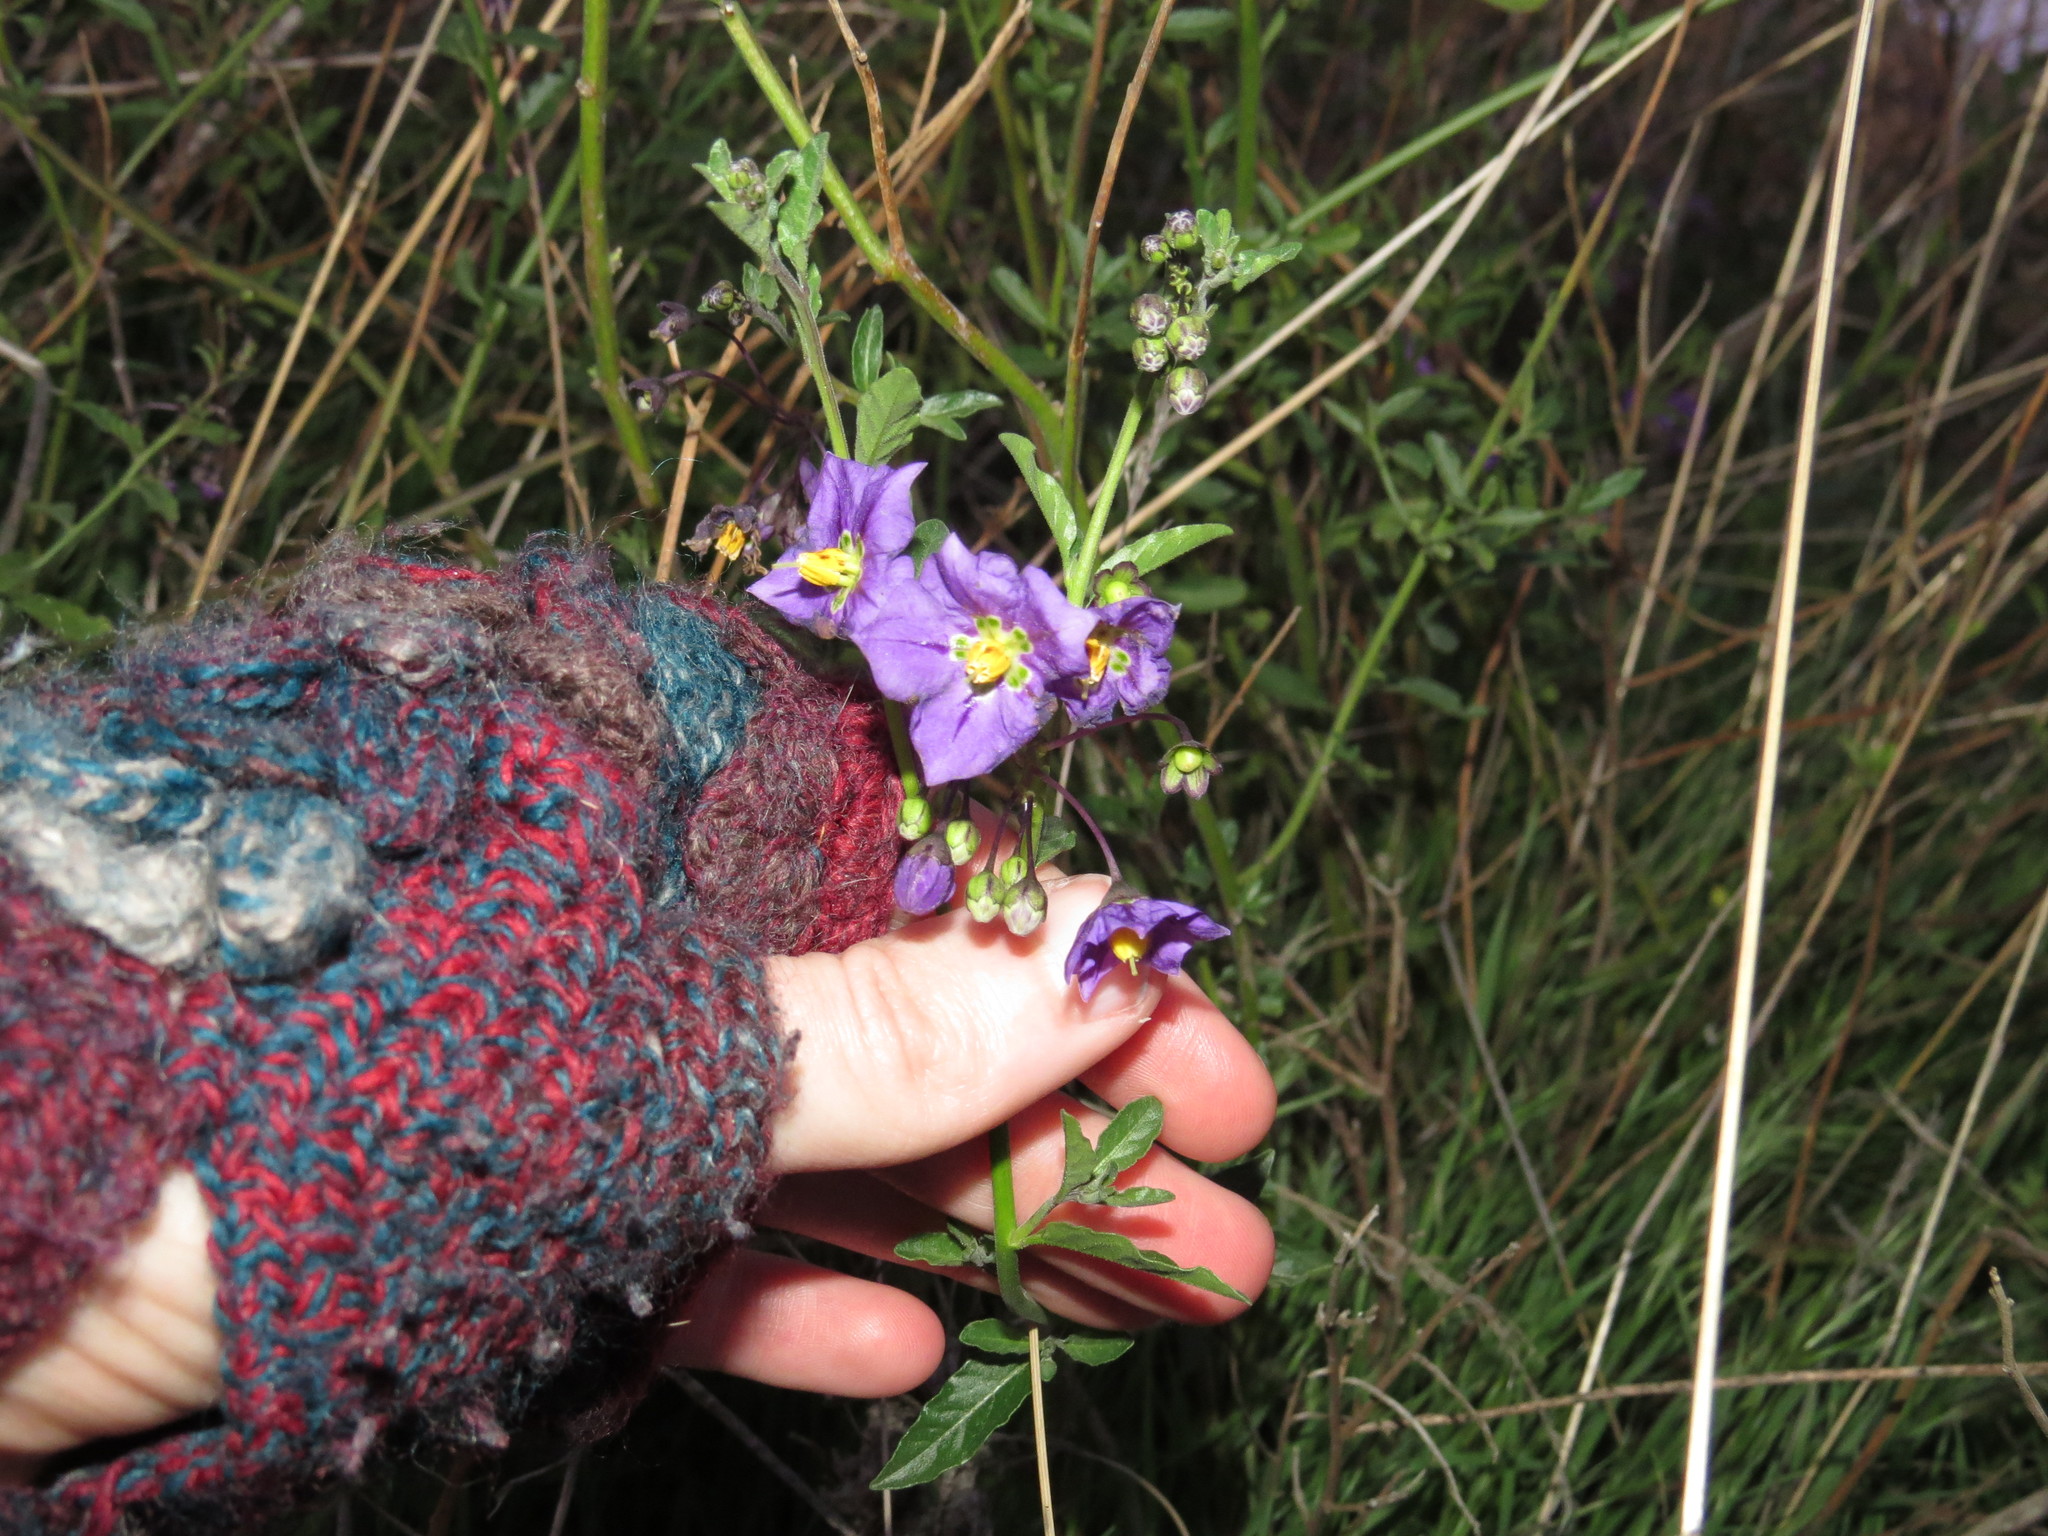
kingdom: Plantae
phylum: Tracheophyta
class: Magnoliopsida
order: Solanales
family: Solanaceae
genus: Solanum
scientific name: Solanum umbelliferum
